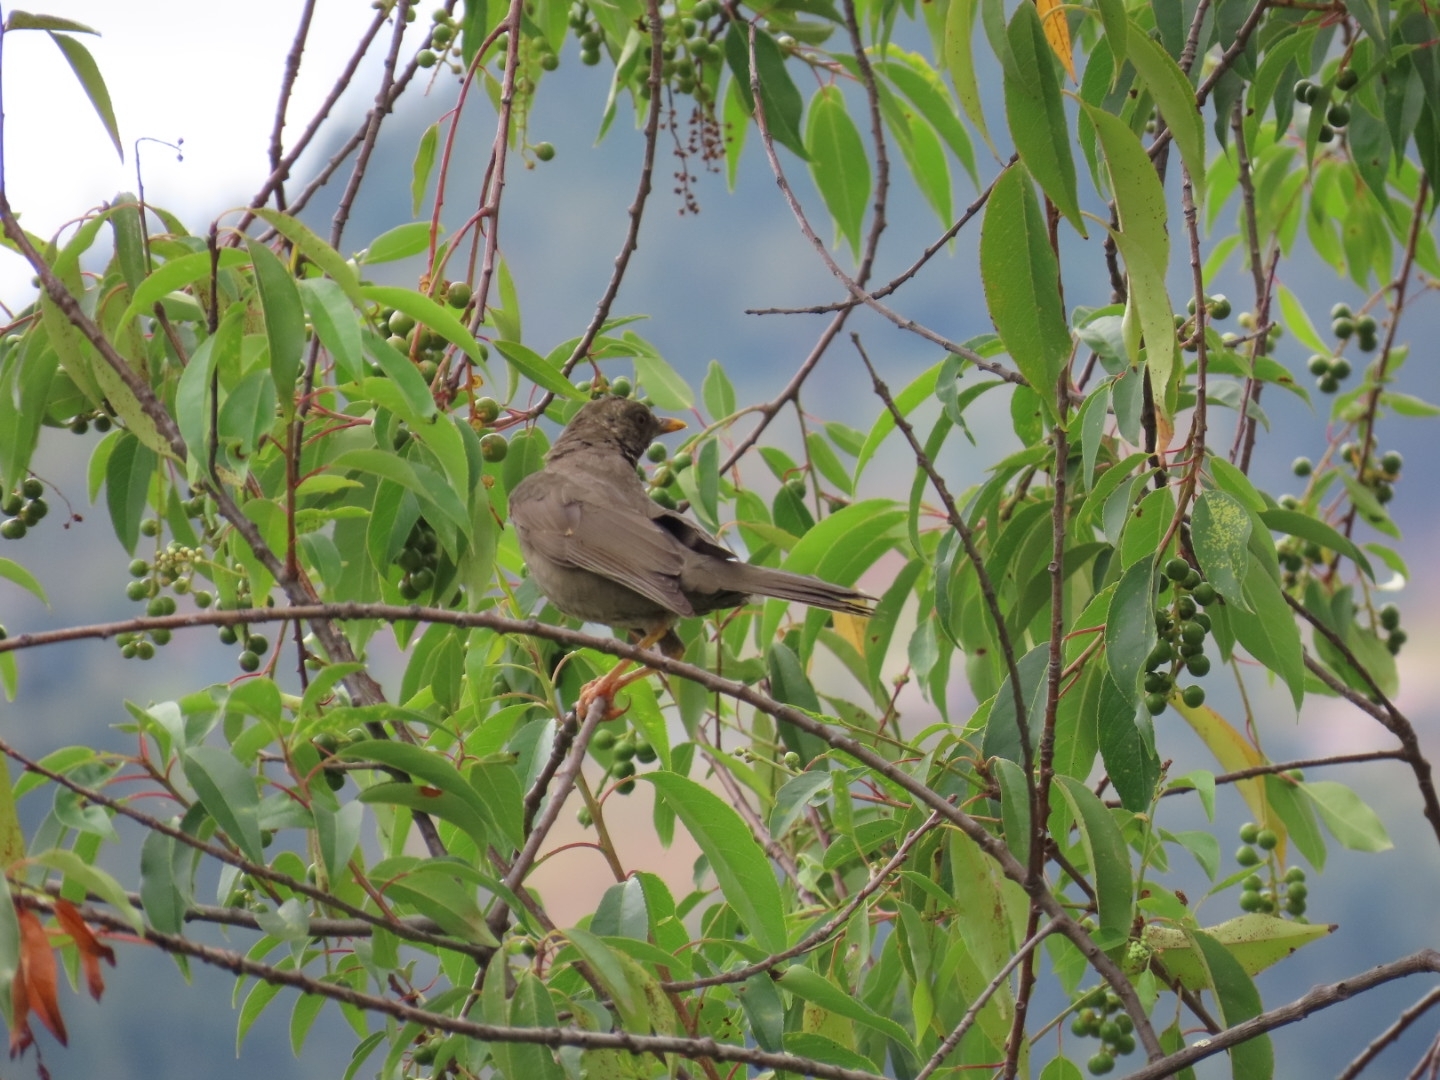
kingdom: Animalia
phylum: Chordata
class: Aves
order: Passeriformes
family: Turdidae
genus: Turdus
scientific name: Turdus chiguanco
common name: Chiguanco thrush
